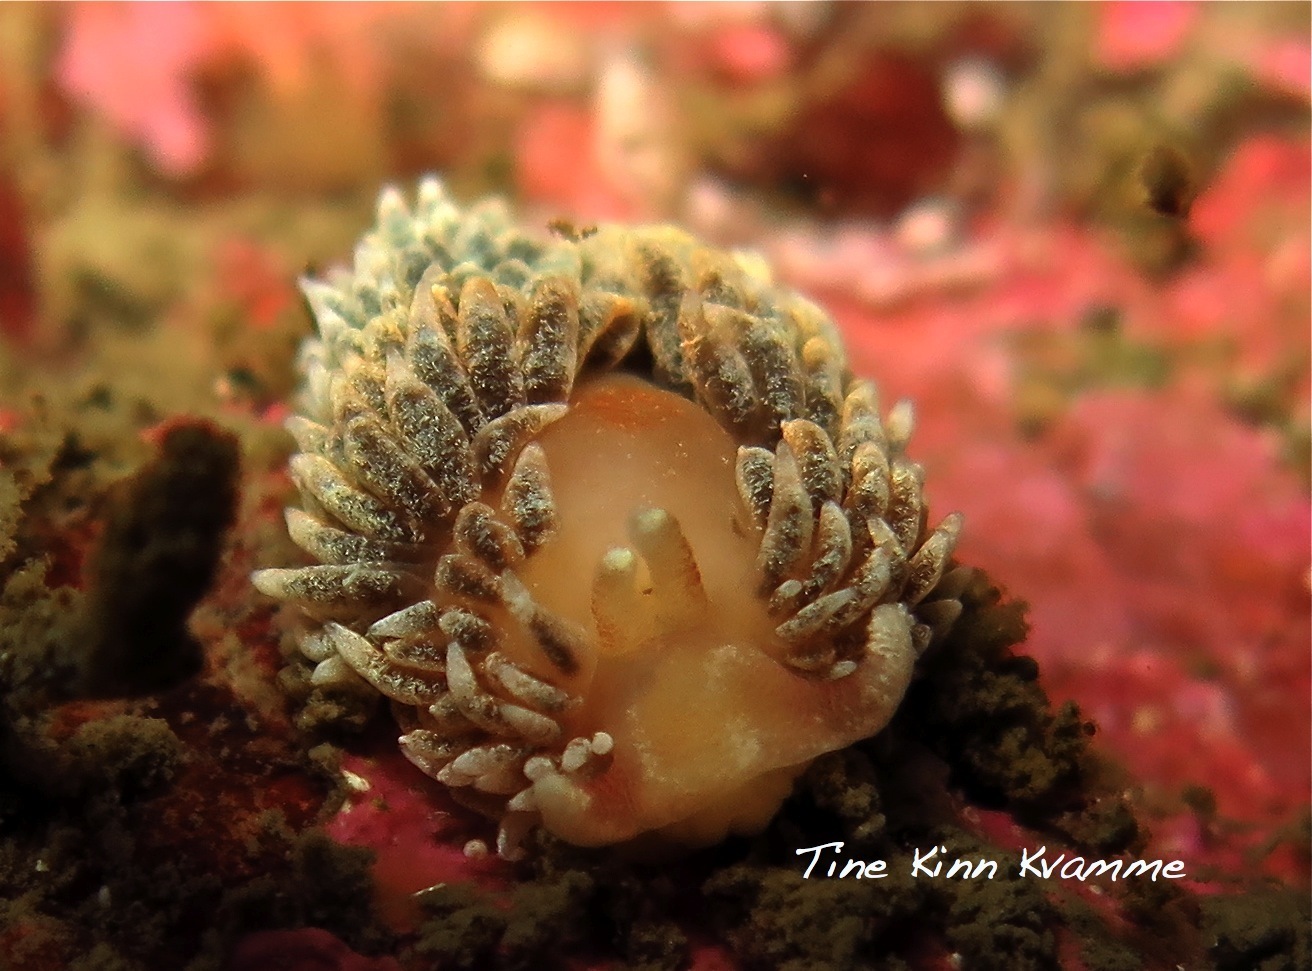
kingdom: Animalia
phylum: Mollusca
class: Gastropoda
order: Nudibranchia
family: Aeolidiidae
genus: Aeolidiella
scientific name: Aeolidiella glauca
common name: Orange-brown aeolid
